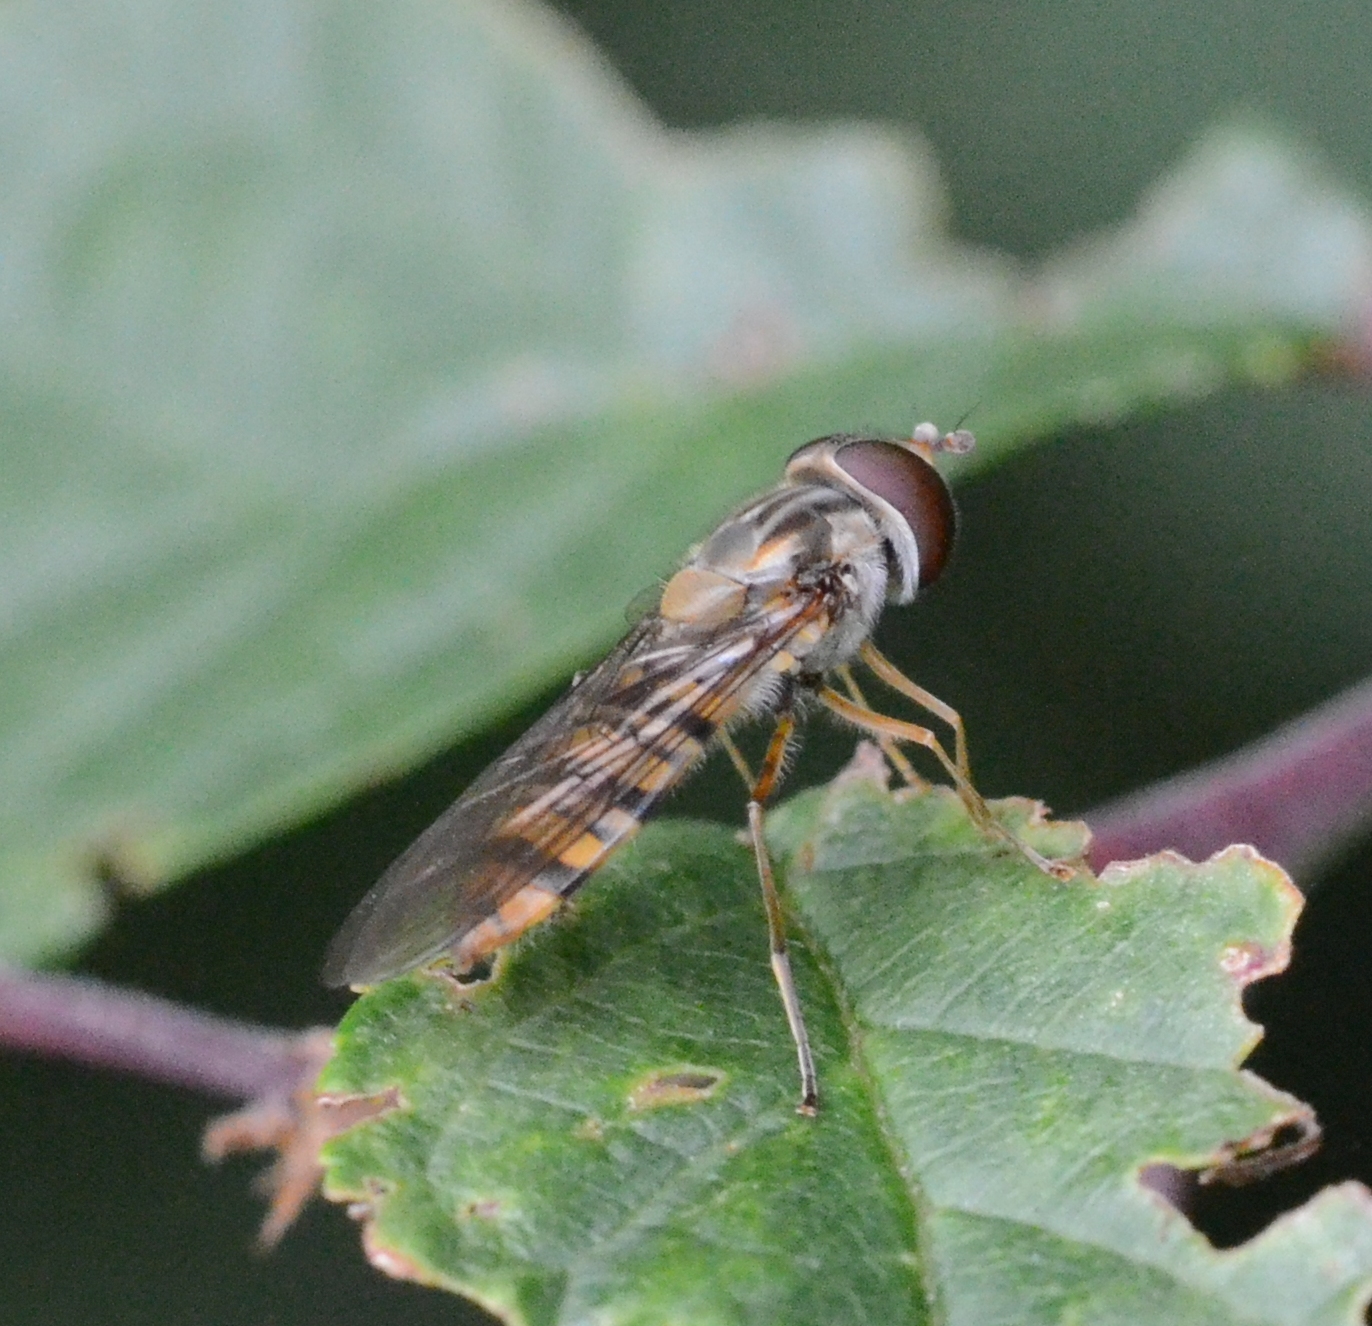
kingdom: Animalia
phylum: Arthropoda
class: Insecta
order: Diptera
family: Syrphidae
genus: Episyrphus
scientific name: Episyrphus balteatus
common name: Marmalade hoverfly
